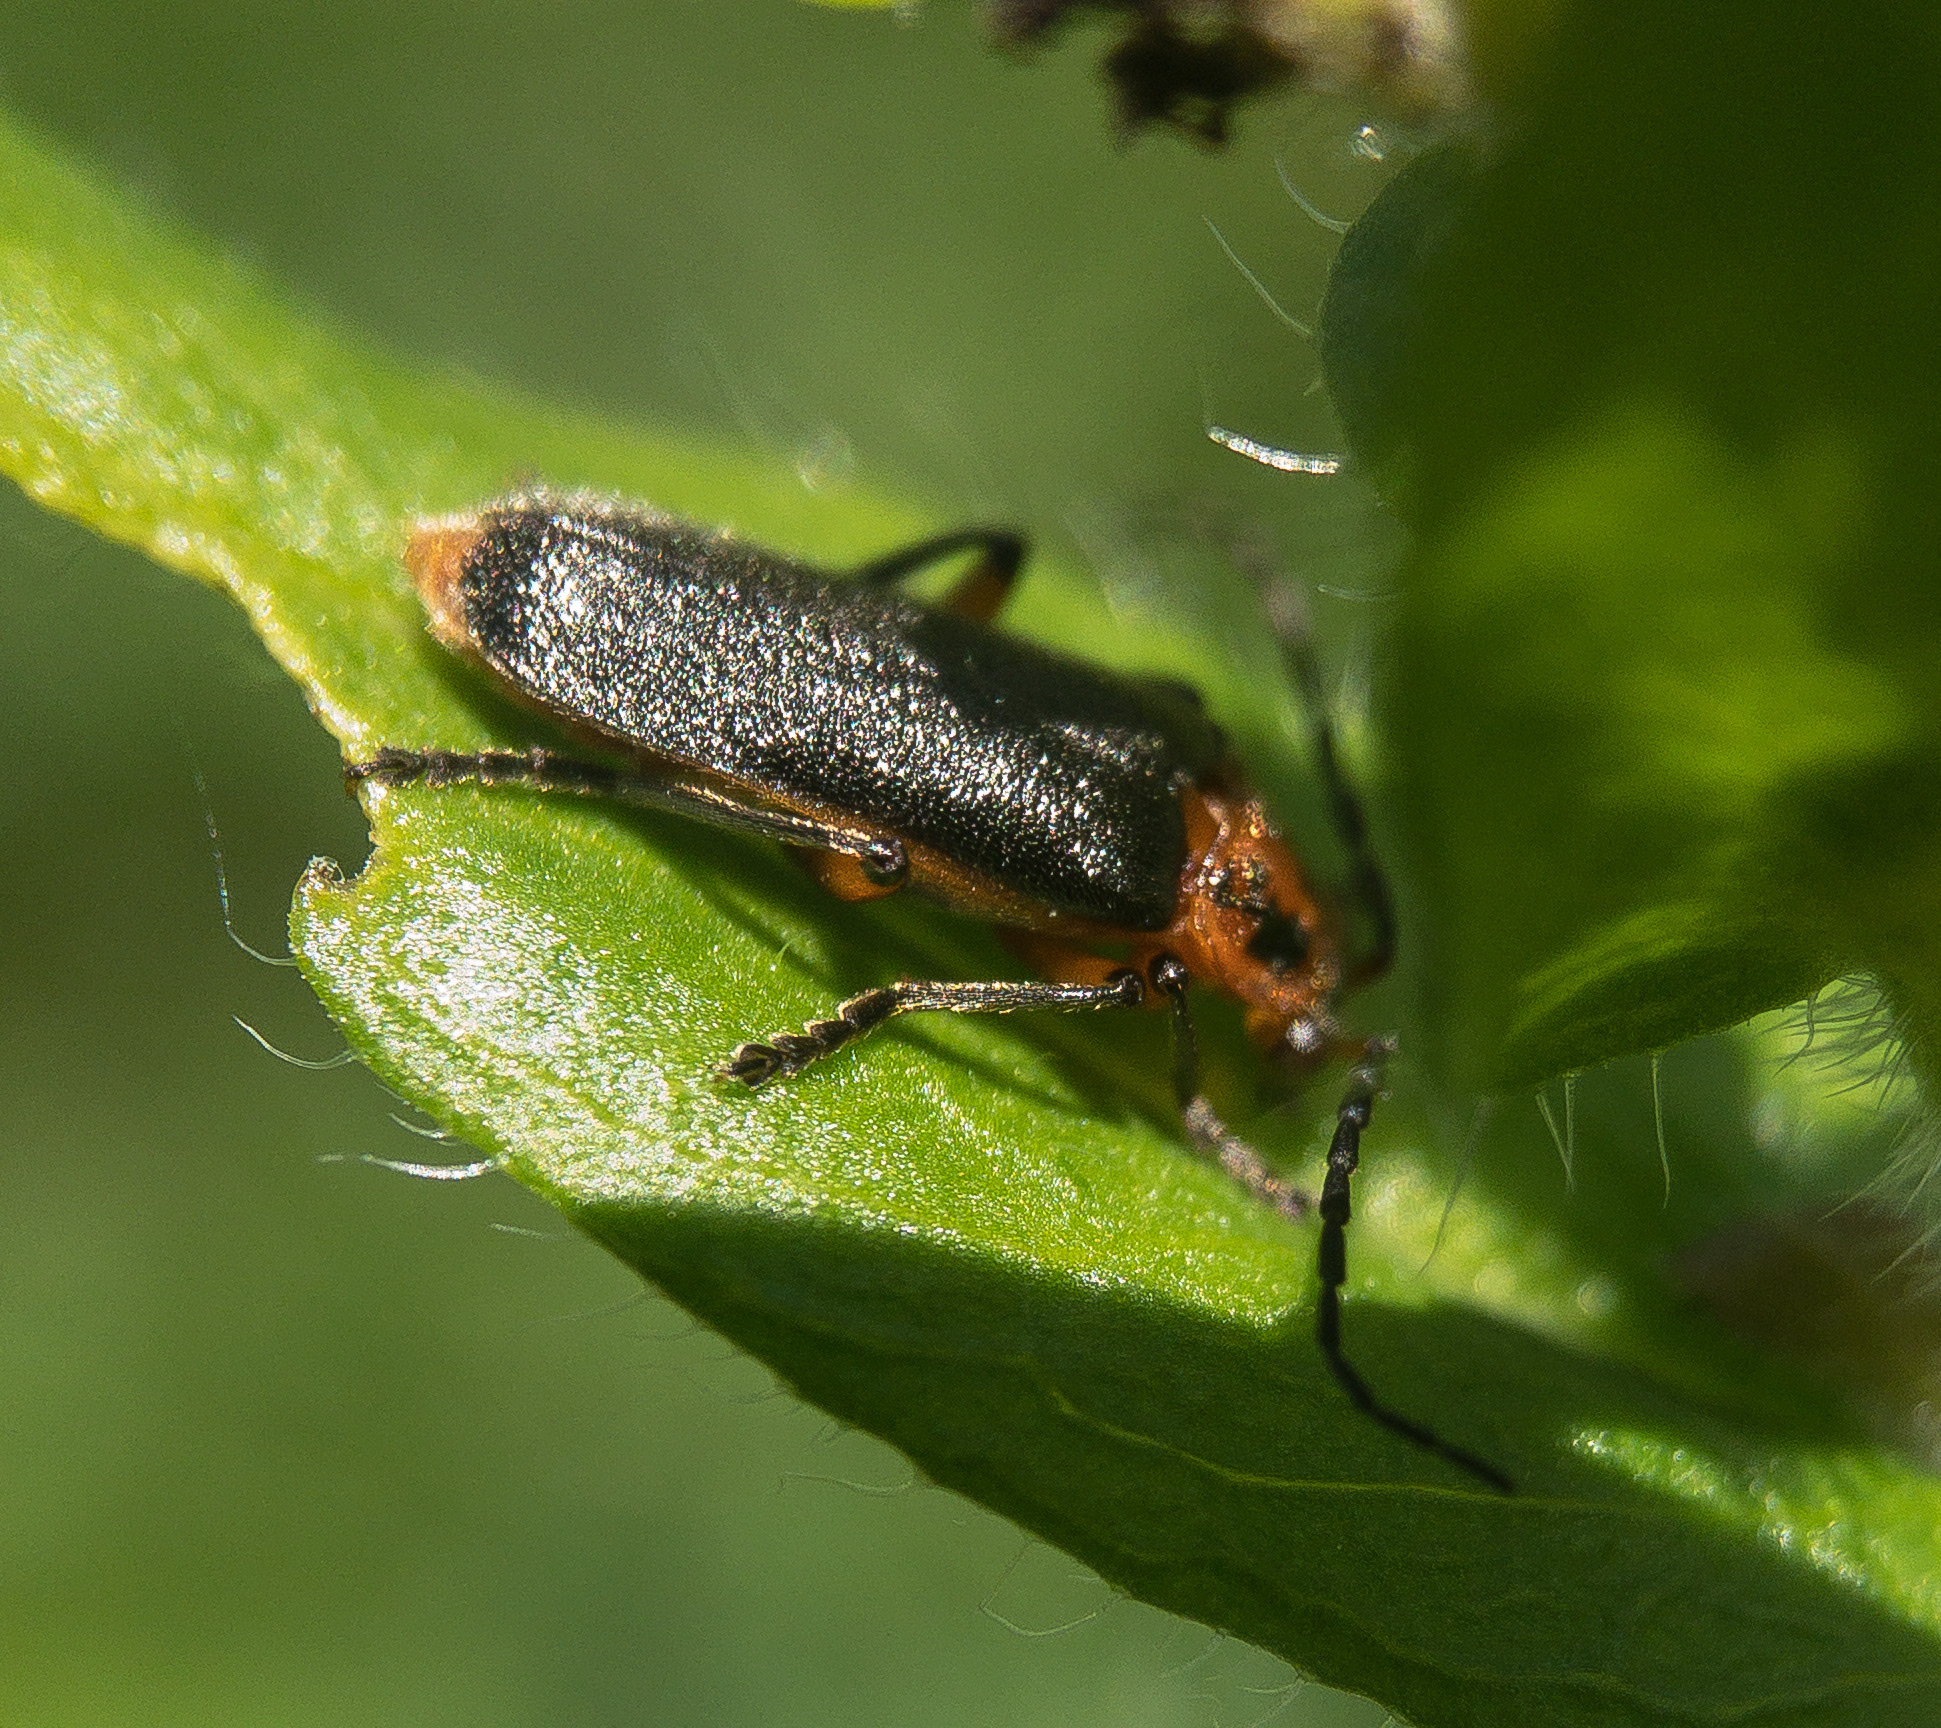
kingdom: Animalia
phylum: Arthropoda
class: Insecta
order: Coleoptera
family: Cantharidae
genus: Atalantycha
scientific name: Atalantycha bilineata
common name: Two-lined leatherwing
